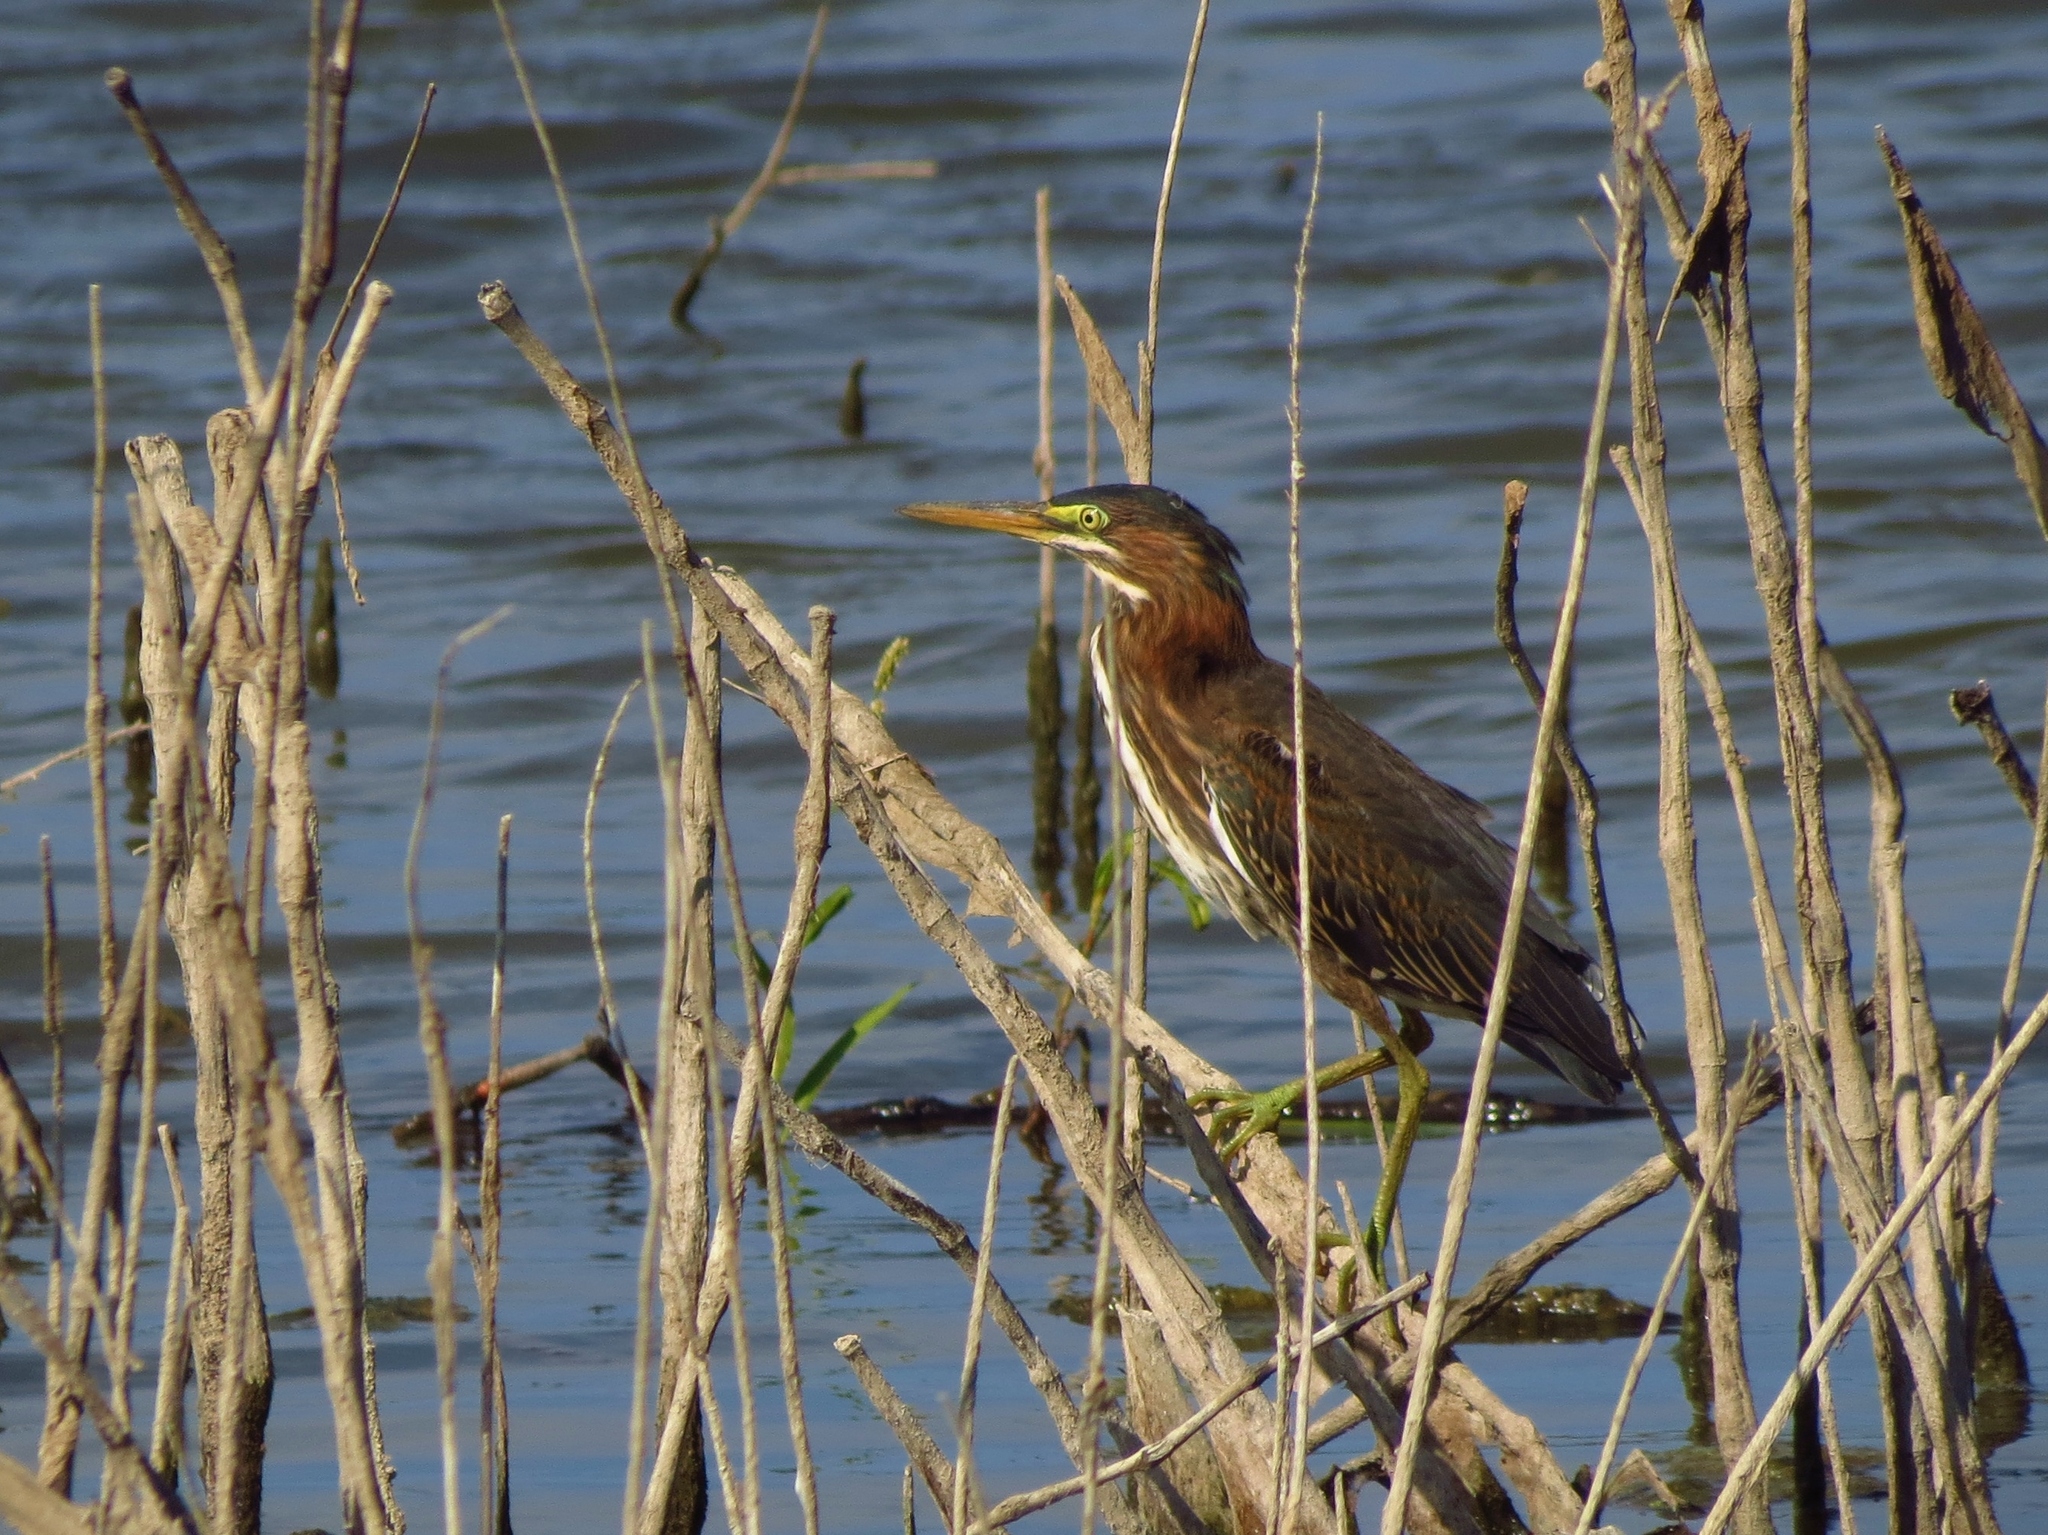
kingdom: Animalia
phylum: Chordata
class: Aves
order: Pelecaniformes
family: Ardeidae
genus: Butorides
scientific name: Butorides virescens
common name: Green heron
